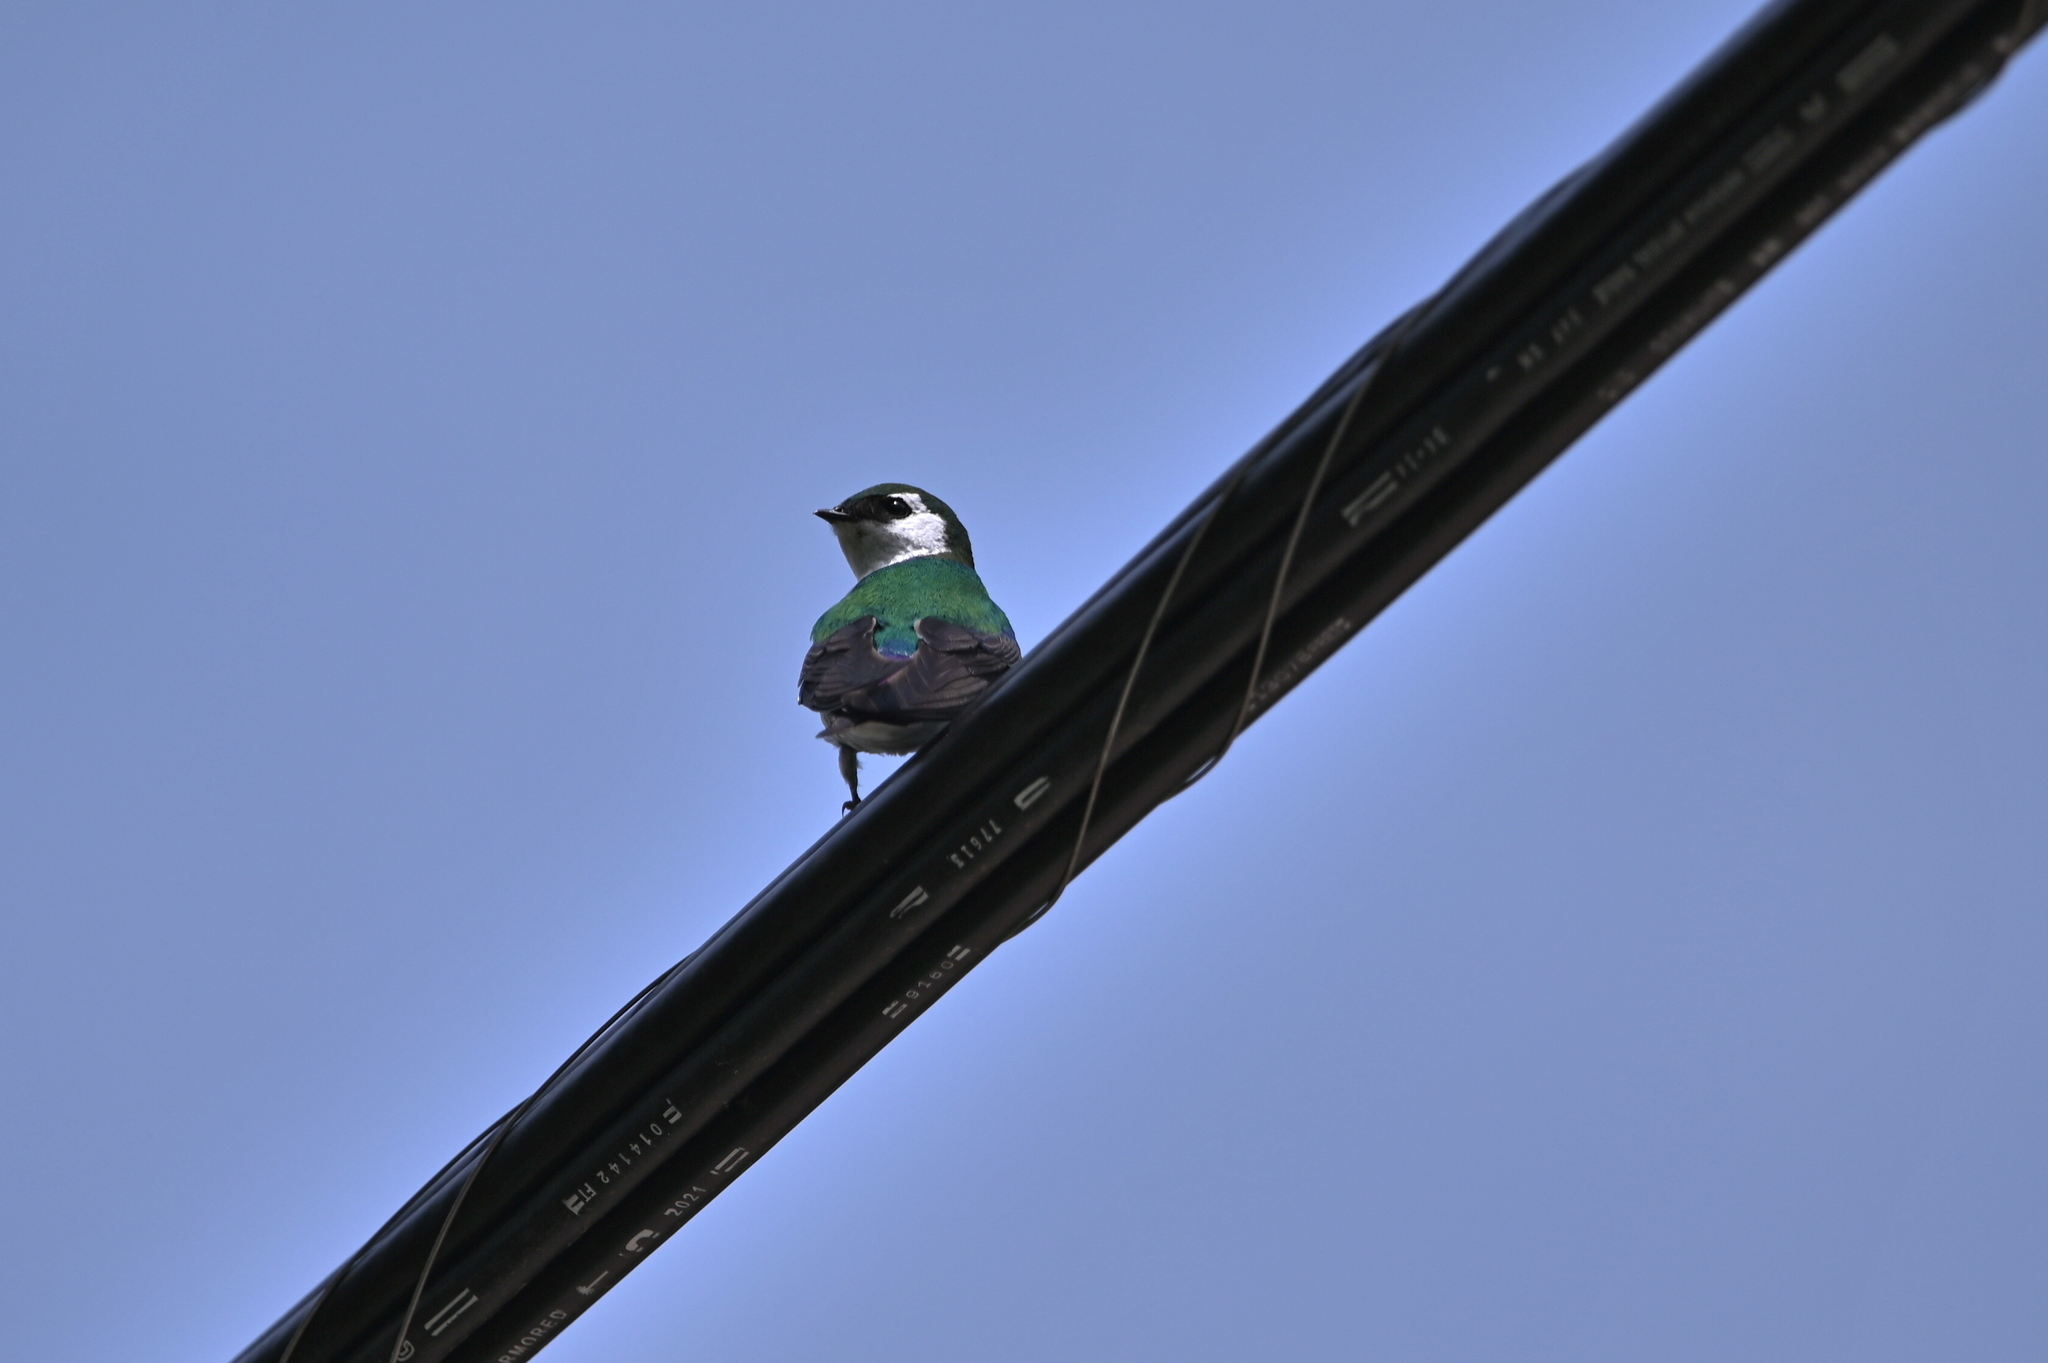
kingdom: Animalia
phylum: Chordata
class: Aves
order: Passeriformes
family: Hirundinidae
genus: Tachycineta
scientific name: Tachycineta thalassina
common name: Violet-green swallow
